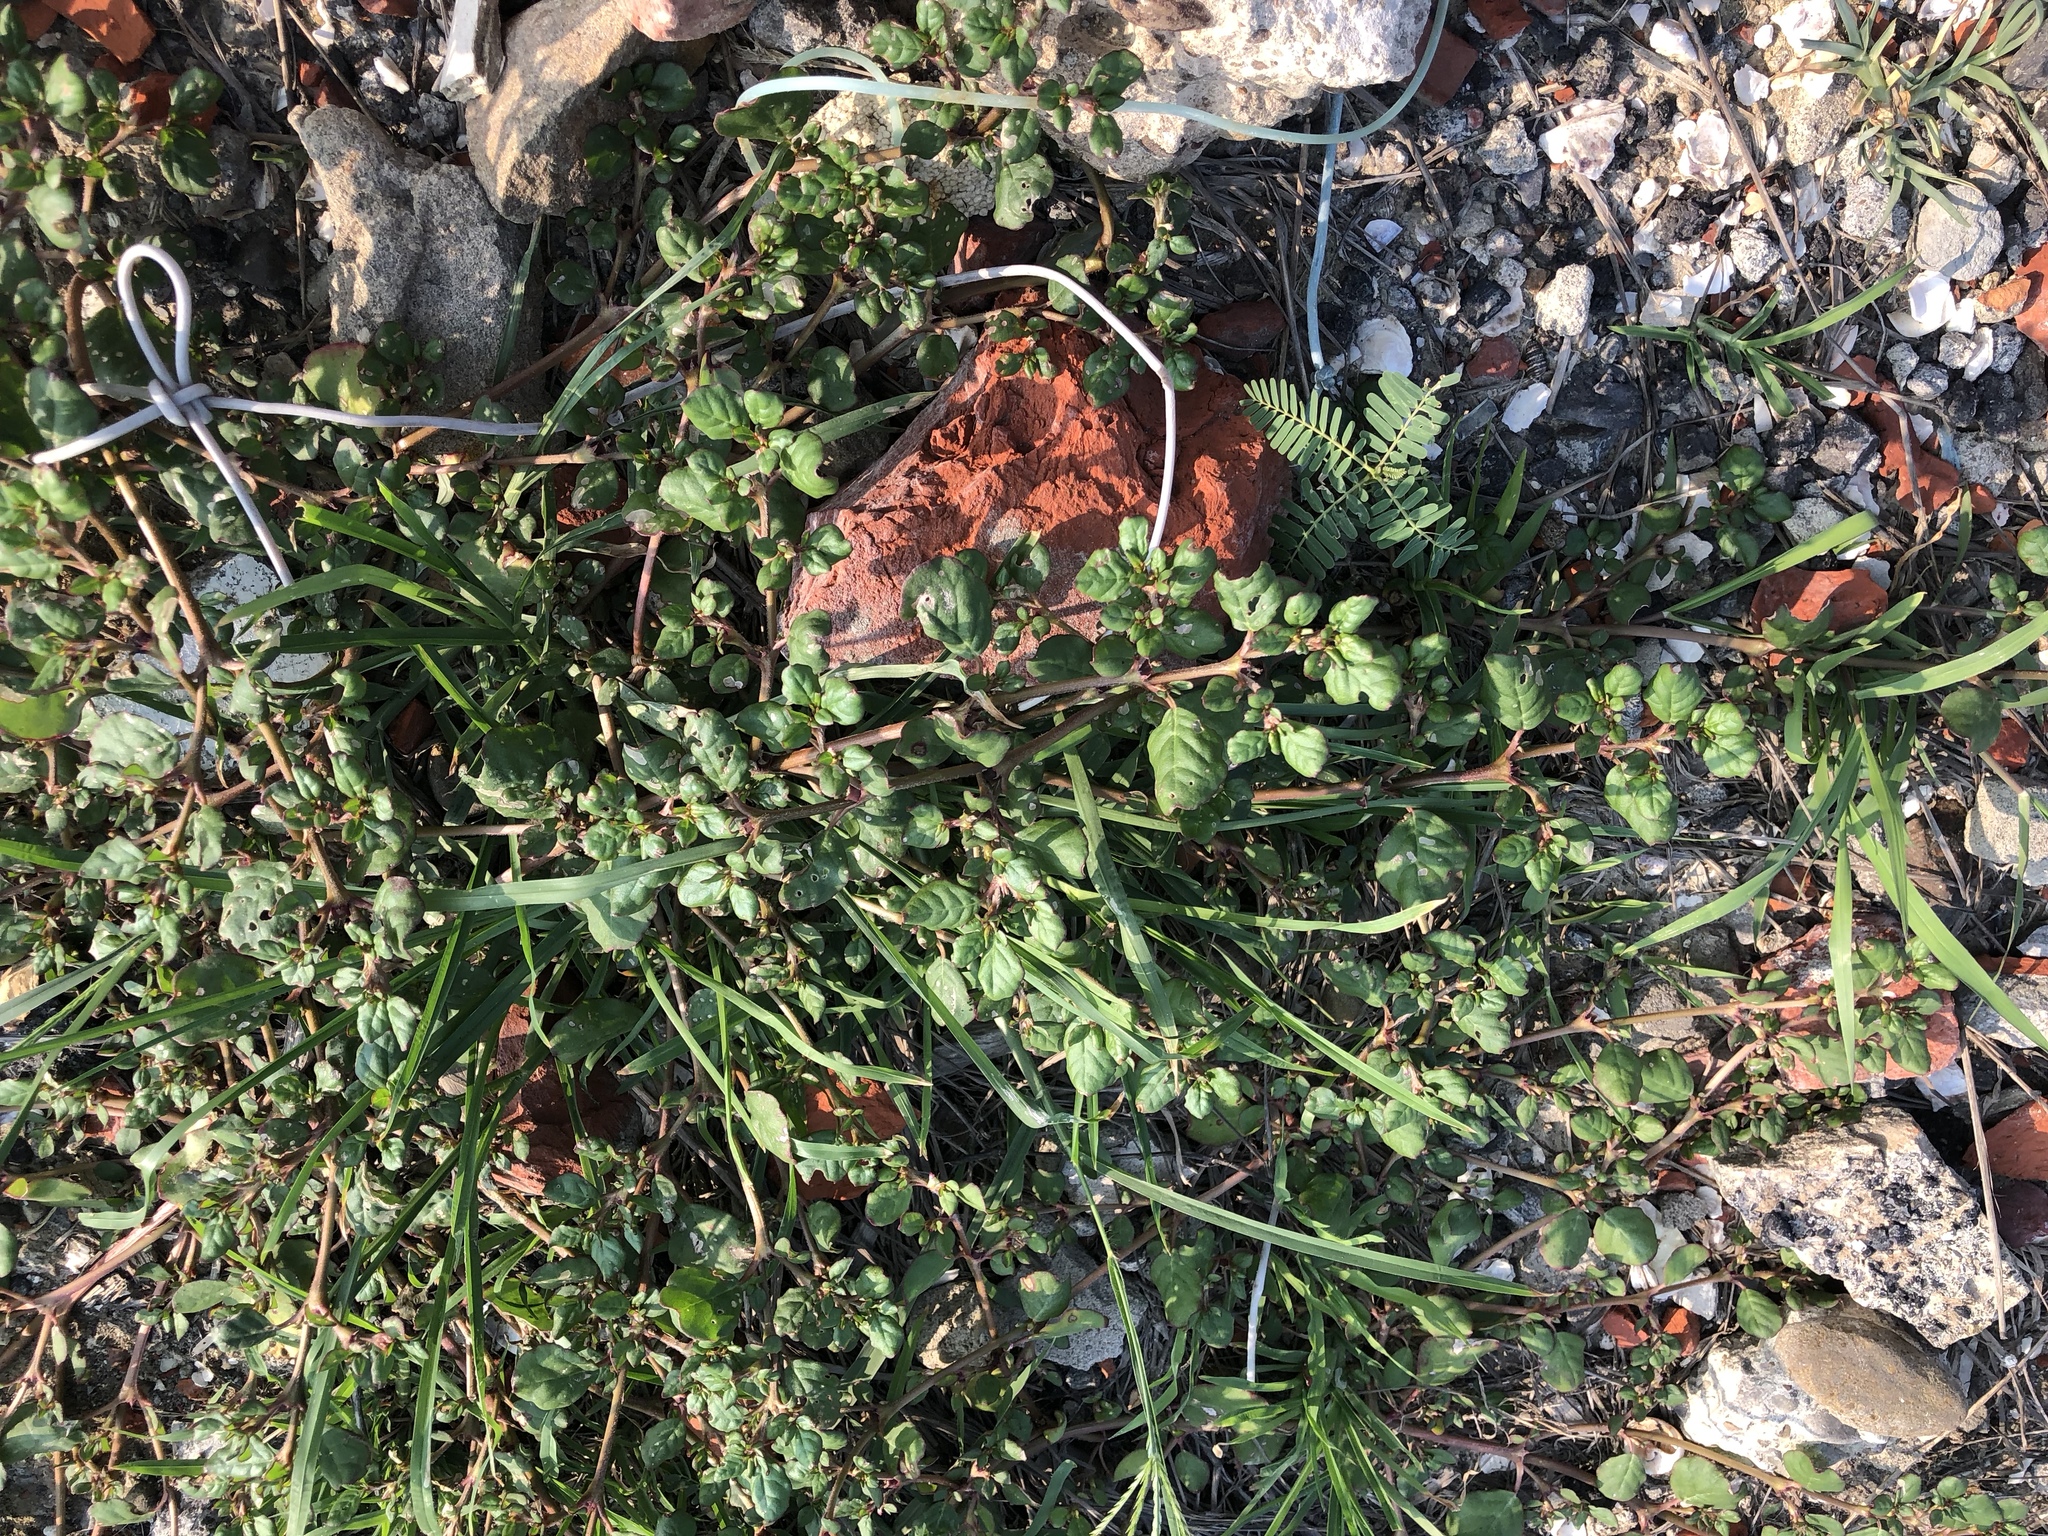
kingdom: Plantae
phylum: Tracheophyta
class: Magnoliopsida
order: Caryophyllales
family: Aizoaceae
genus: Trianthema
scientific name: Trianthema portulacastrum
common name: Desert horsepurslane
